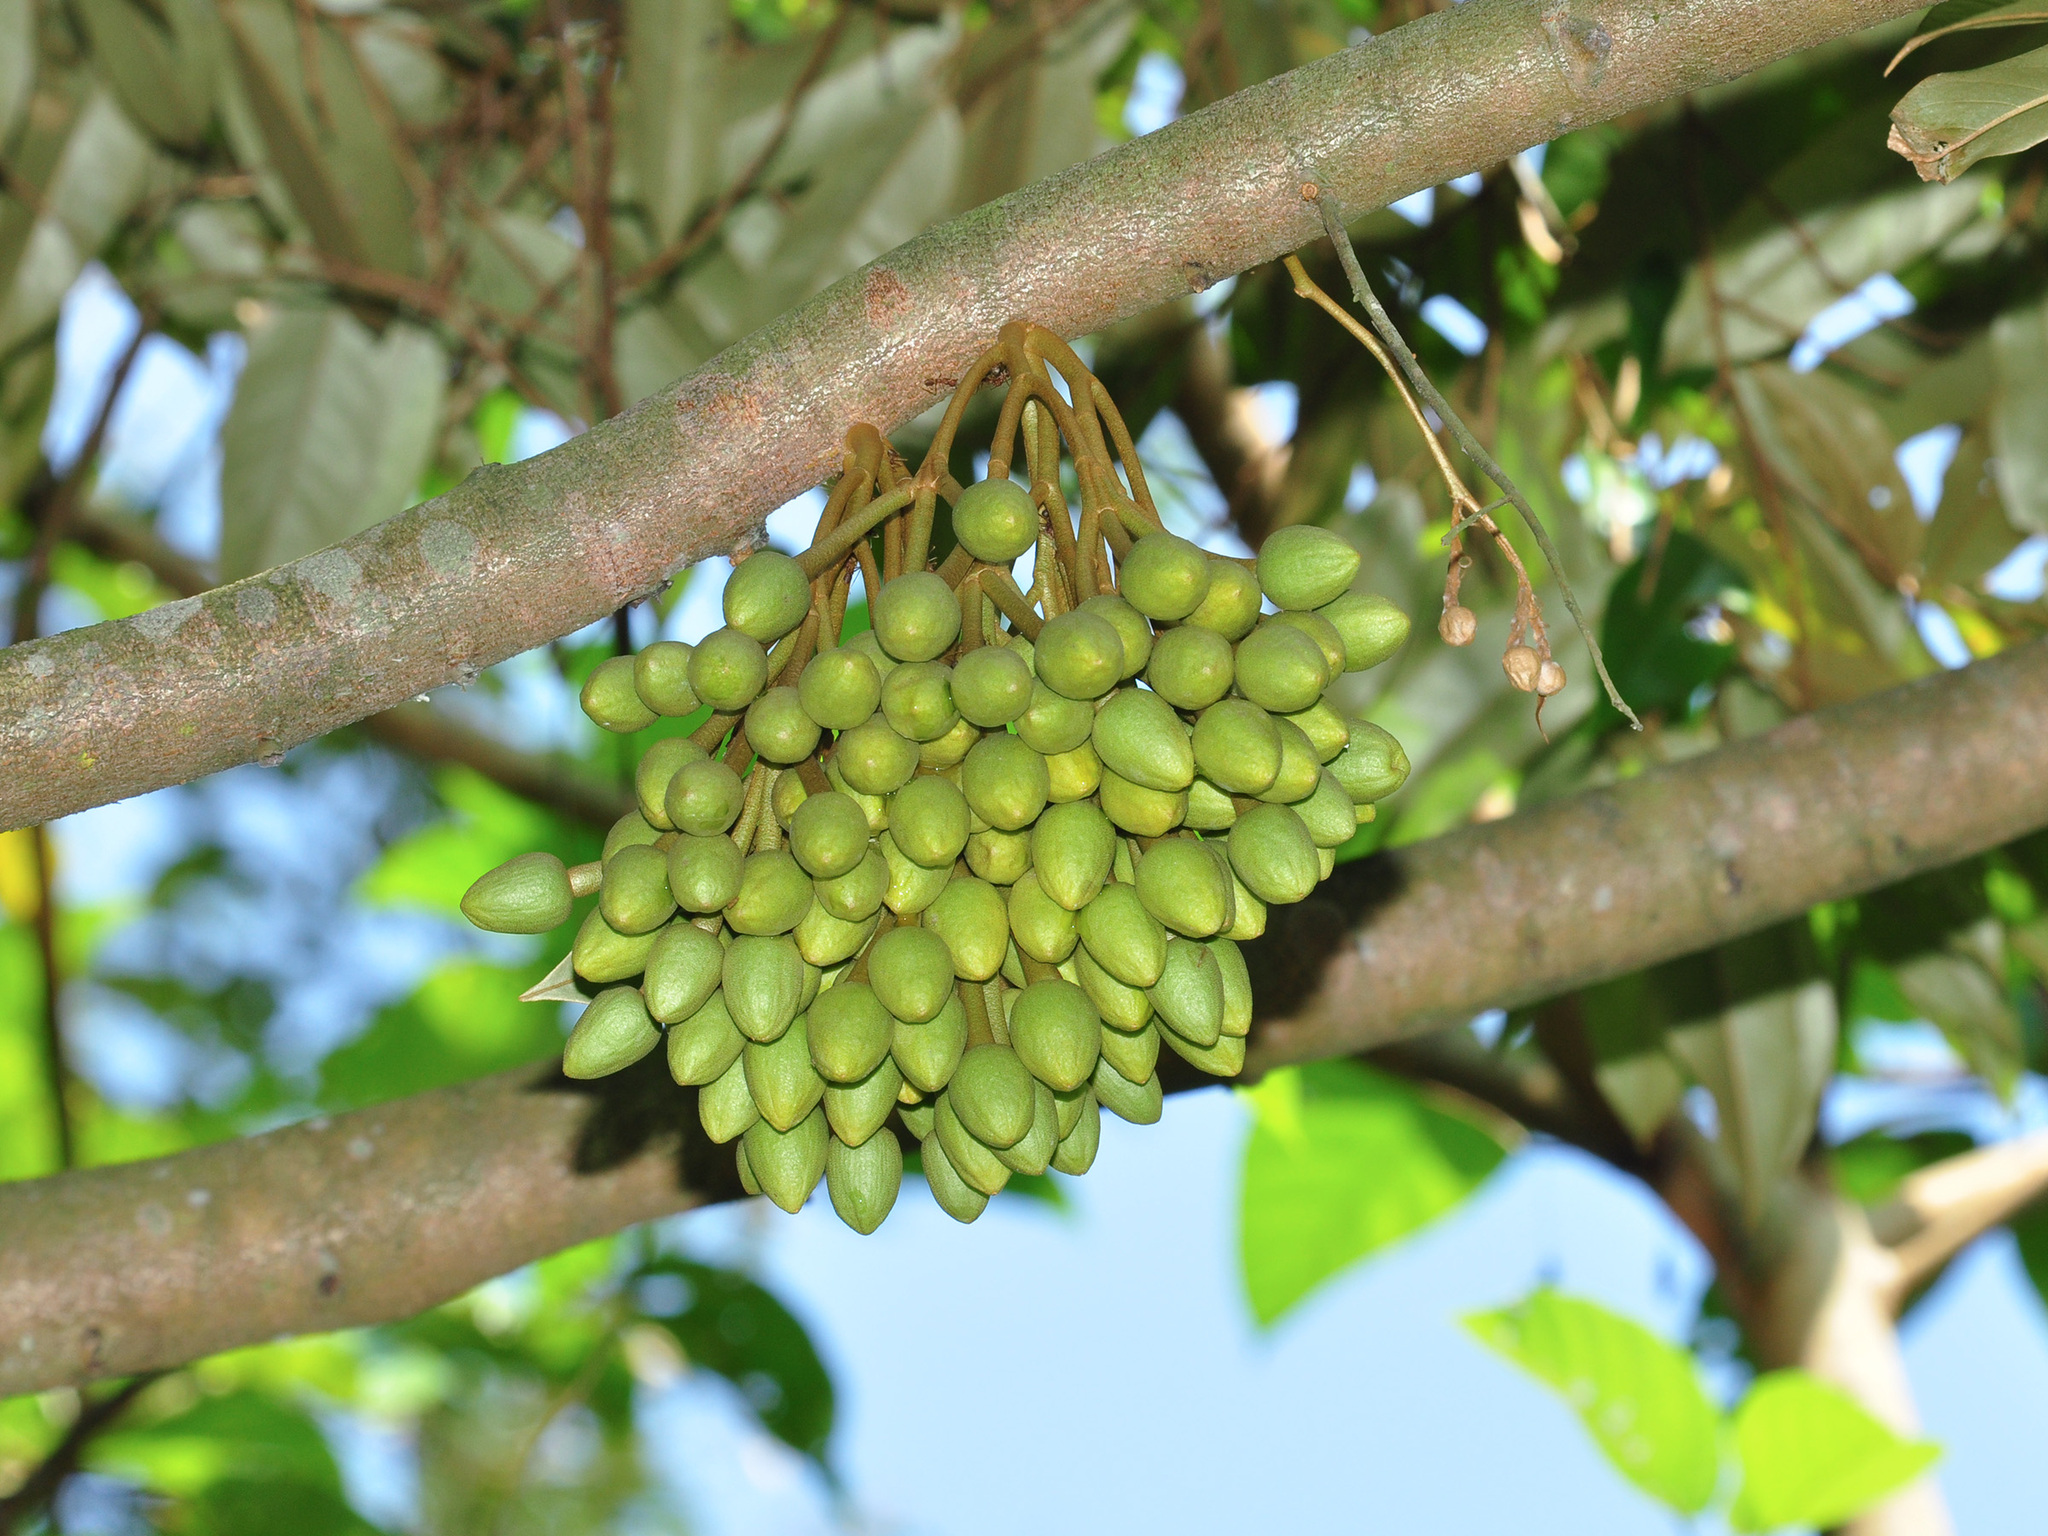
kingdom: Plantae
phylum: Tracheophyta
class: Magnoliopsida
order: Malvales
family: Malvaceae
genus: Durio
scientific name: Durio zibethinus
